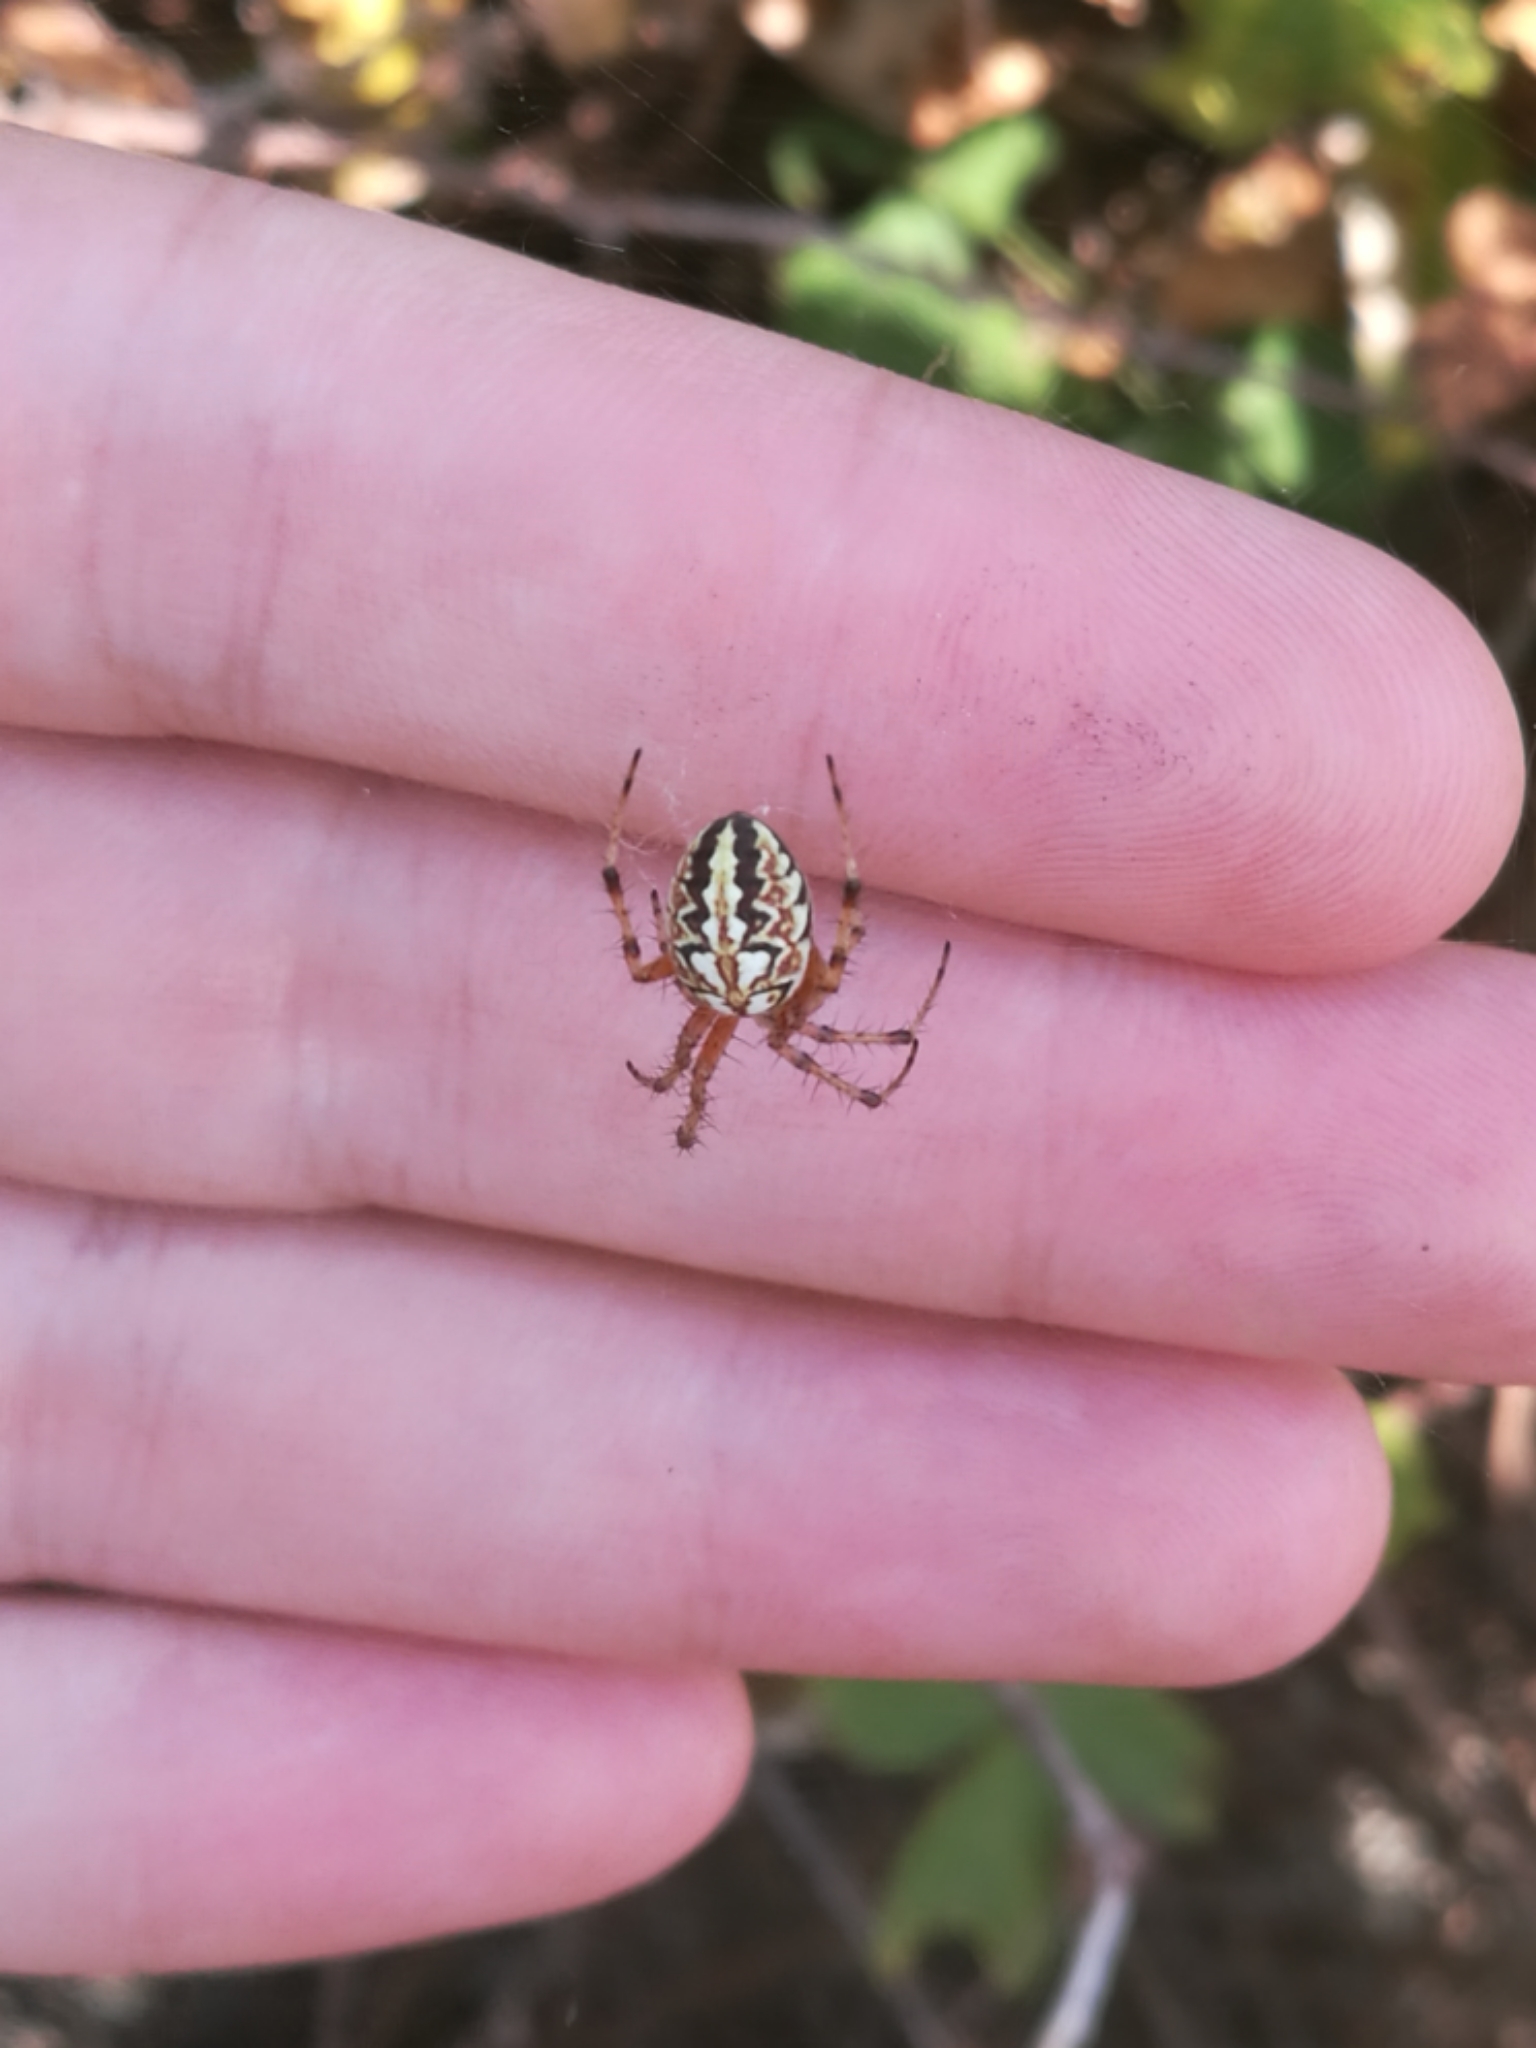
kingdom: Animalia
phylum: Arthropoda
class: Arachnida
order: Araneae
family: Araneidae
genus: Neoscona
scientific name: Neoscona adianta
